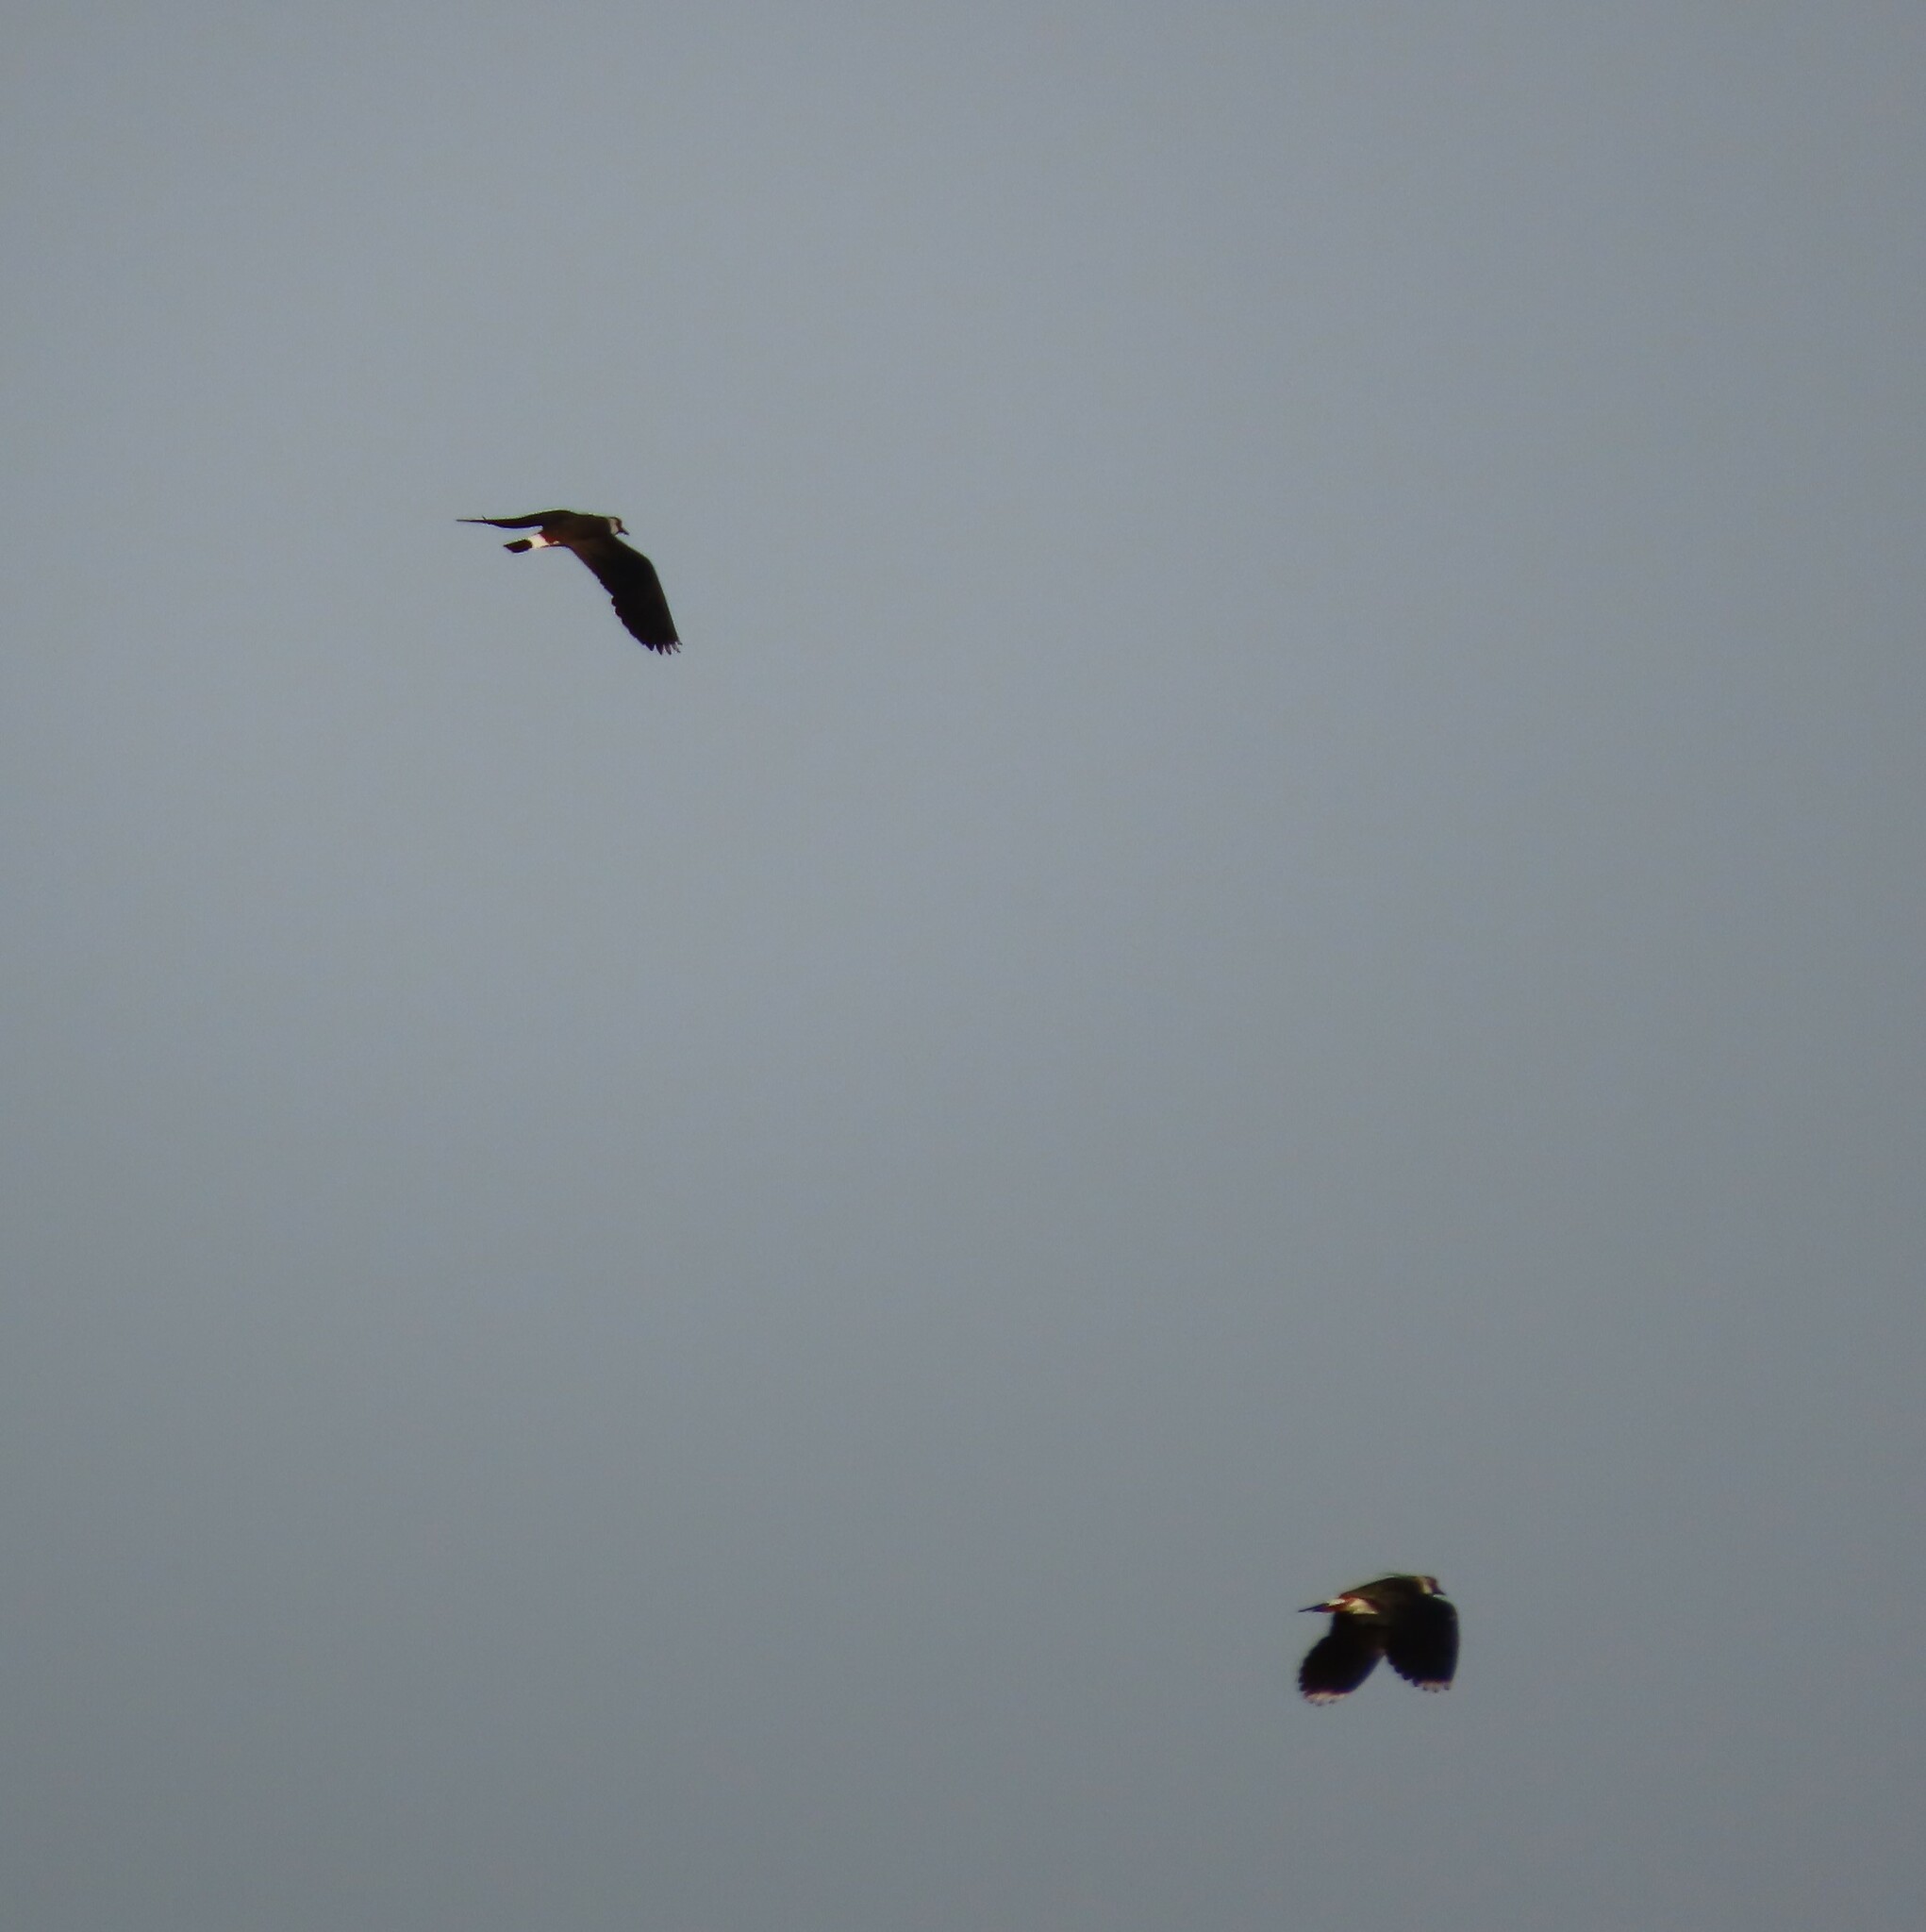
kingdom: Animalia
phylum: Chordata
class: Aves
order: Charadriiformes
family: Charadriidae
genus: Vanellus
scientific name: Vanellus vanellus
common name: Northern lapwing
